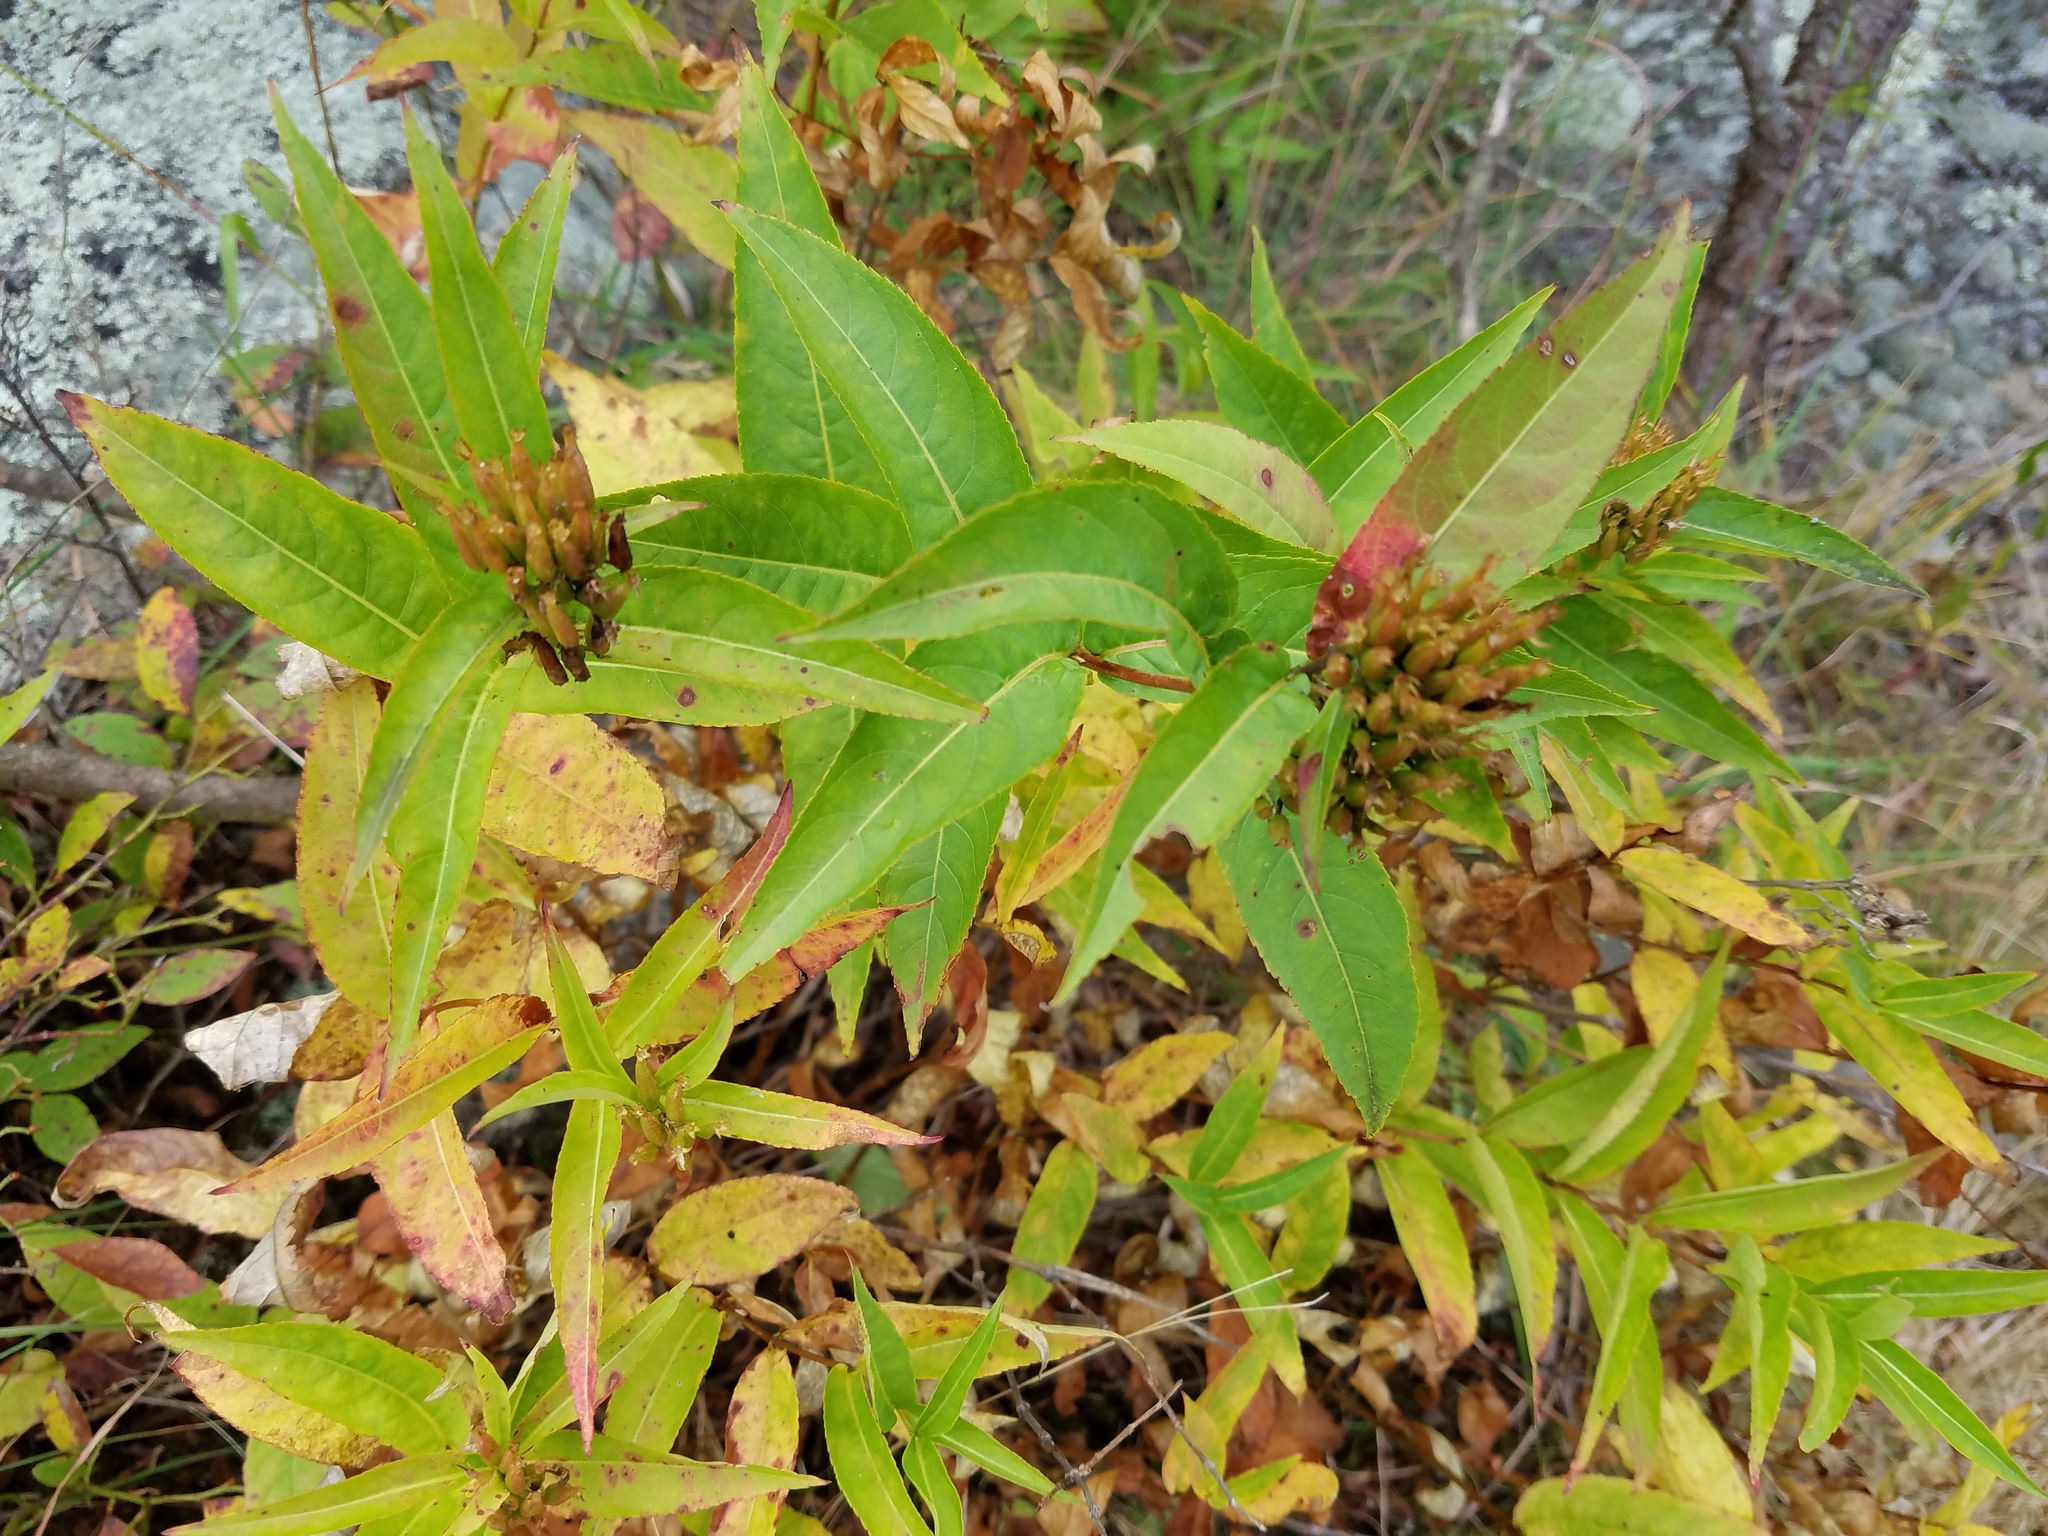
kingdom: Plantae
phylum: Tracheophyta
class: Magnoliopsida
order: Dipsacales
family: Caprifoliaceae
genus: Diervilla
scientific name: Diervilla sessilifolia
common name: Bush-honeysuckle
